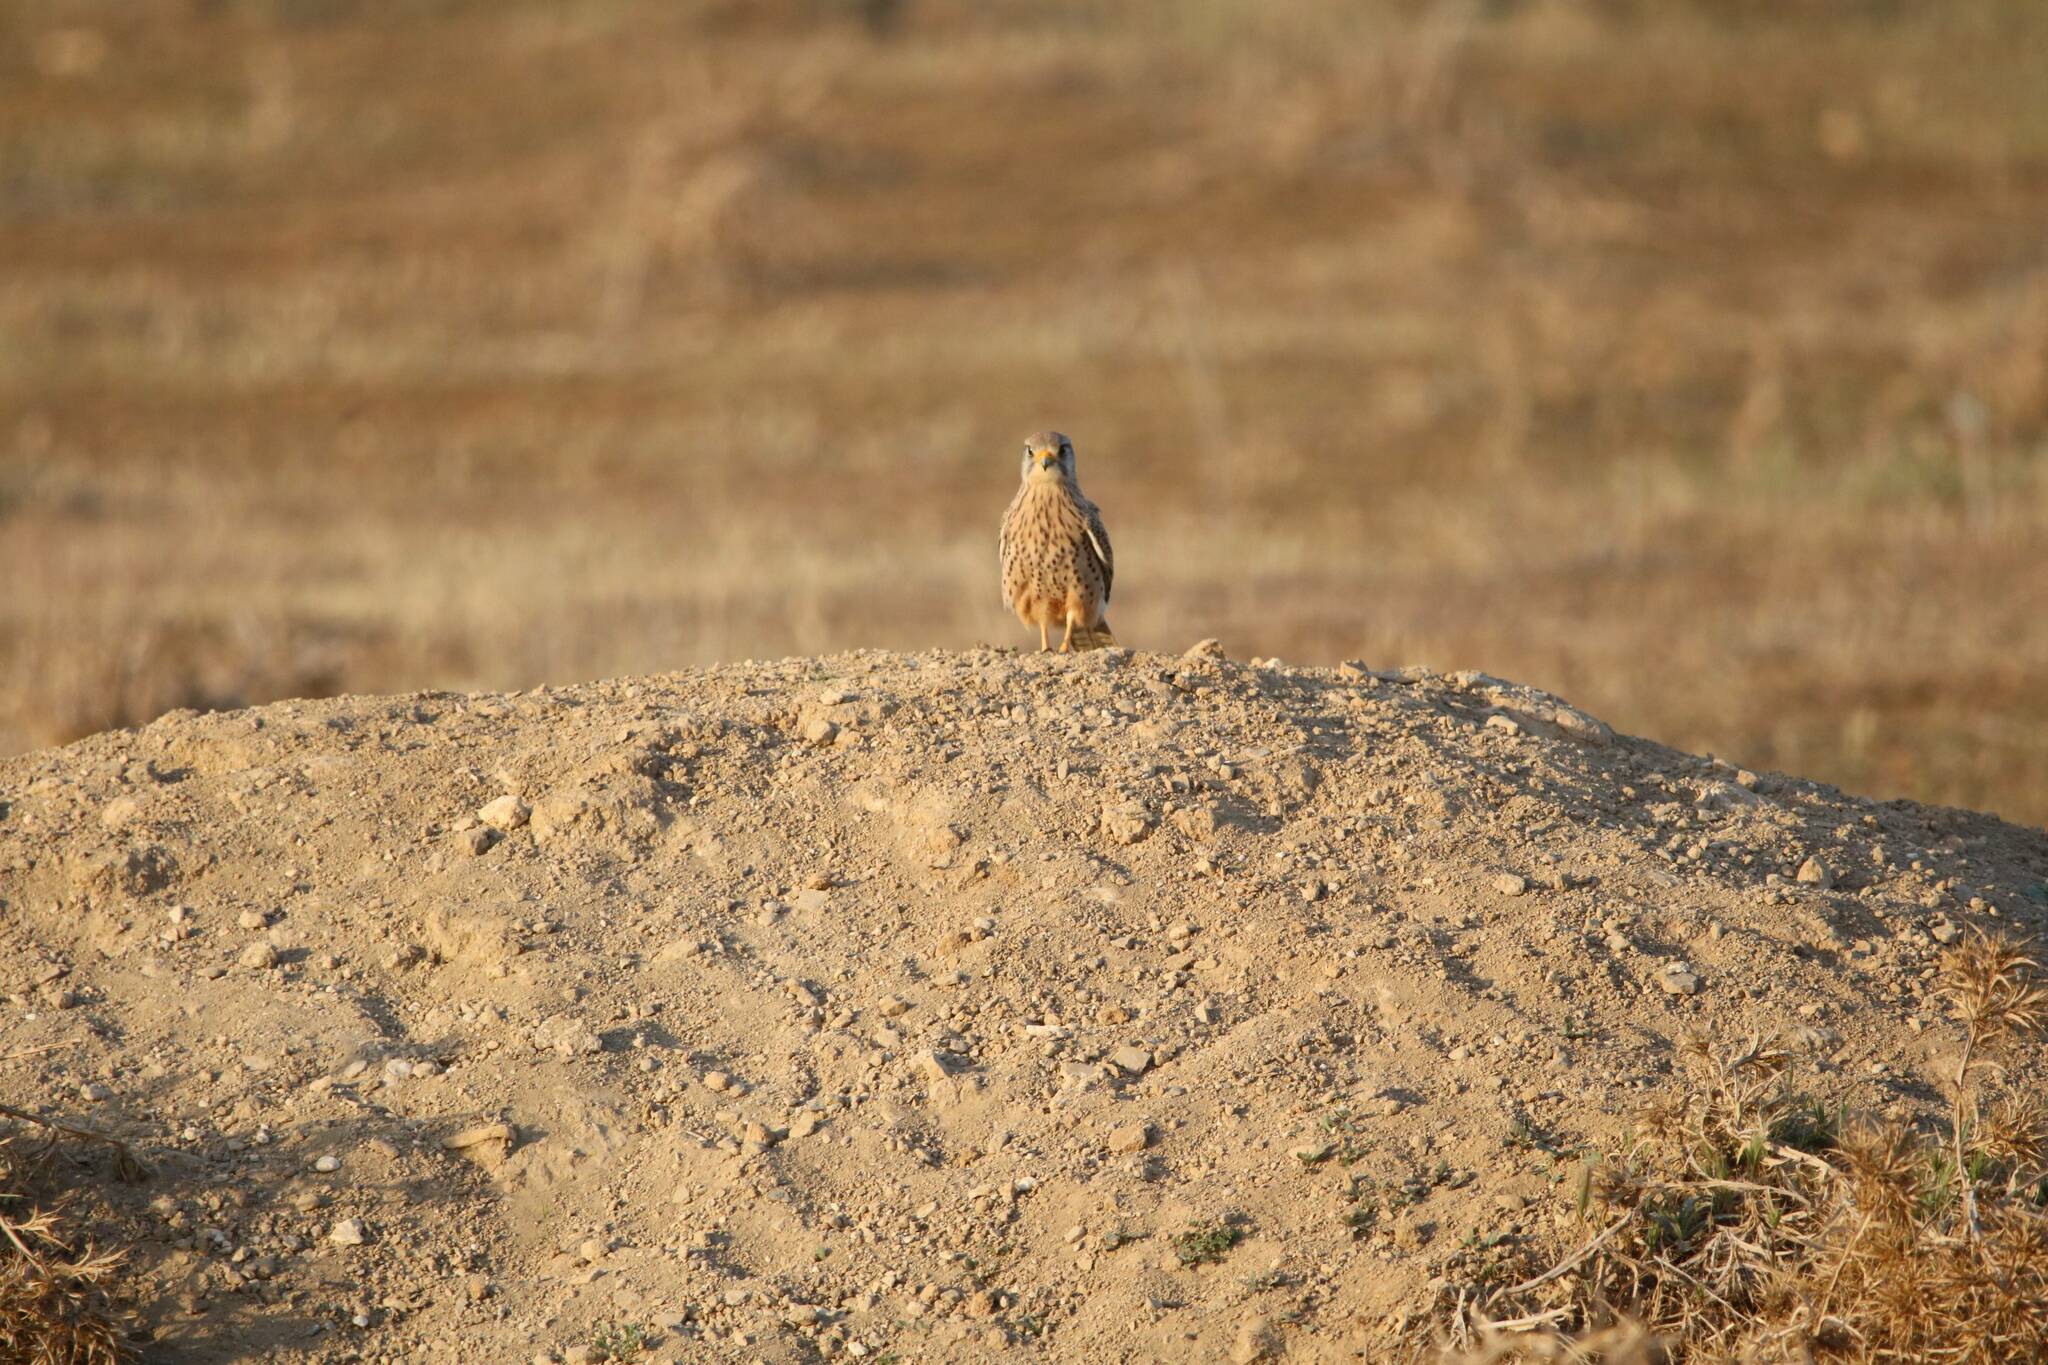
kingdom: Animalia
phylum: Chordata
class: Aves
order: Falconiformes
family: Falconidae
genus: Falco
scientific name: Falco tinnunculus
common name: Common kestrel
